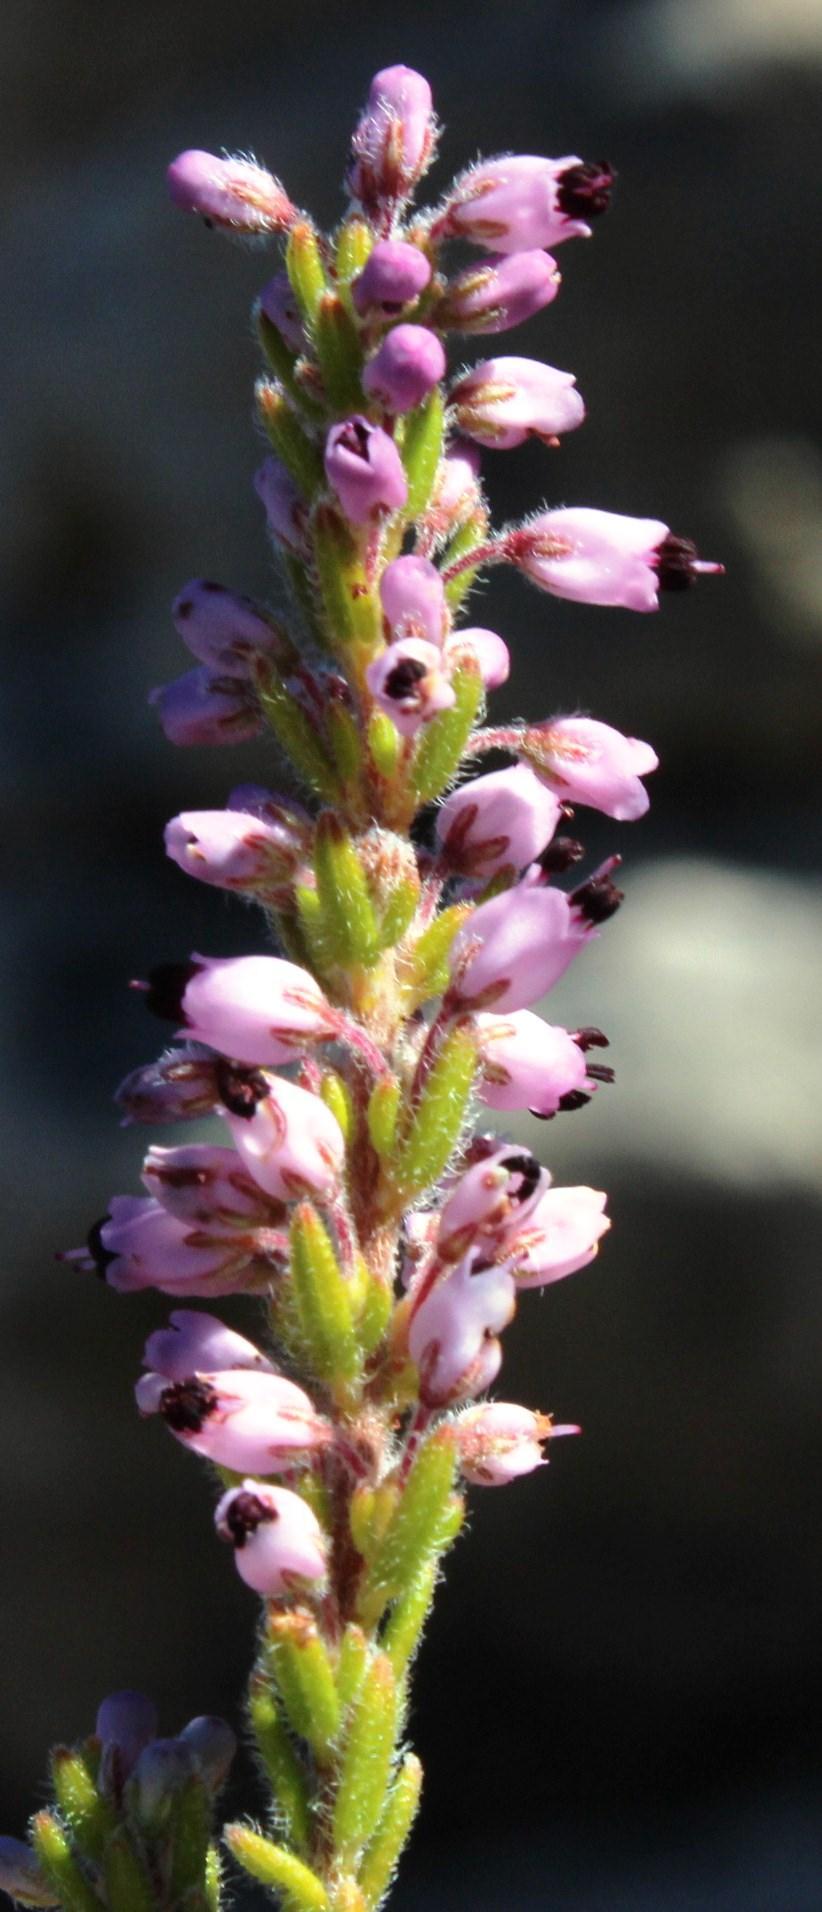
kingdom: Plantae
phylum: Tracheophyta
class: Magnoliopsida
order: Ericales
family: Ericaceae
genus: Erica
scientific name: Erica nudiflora
